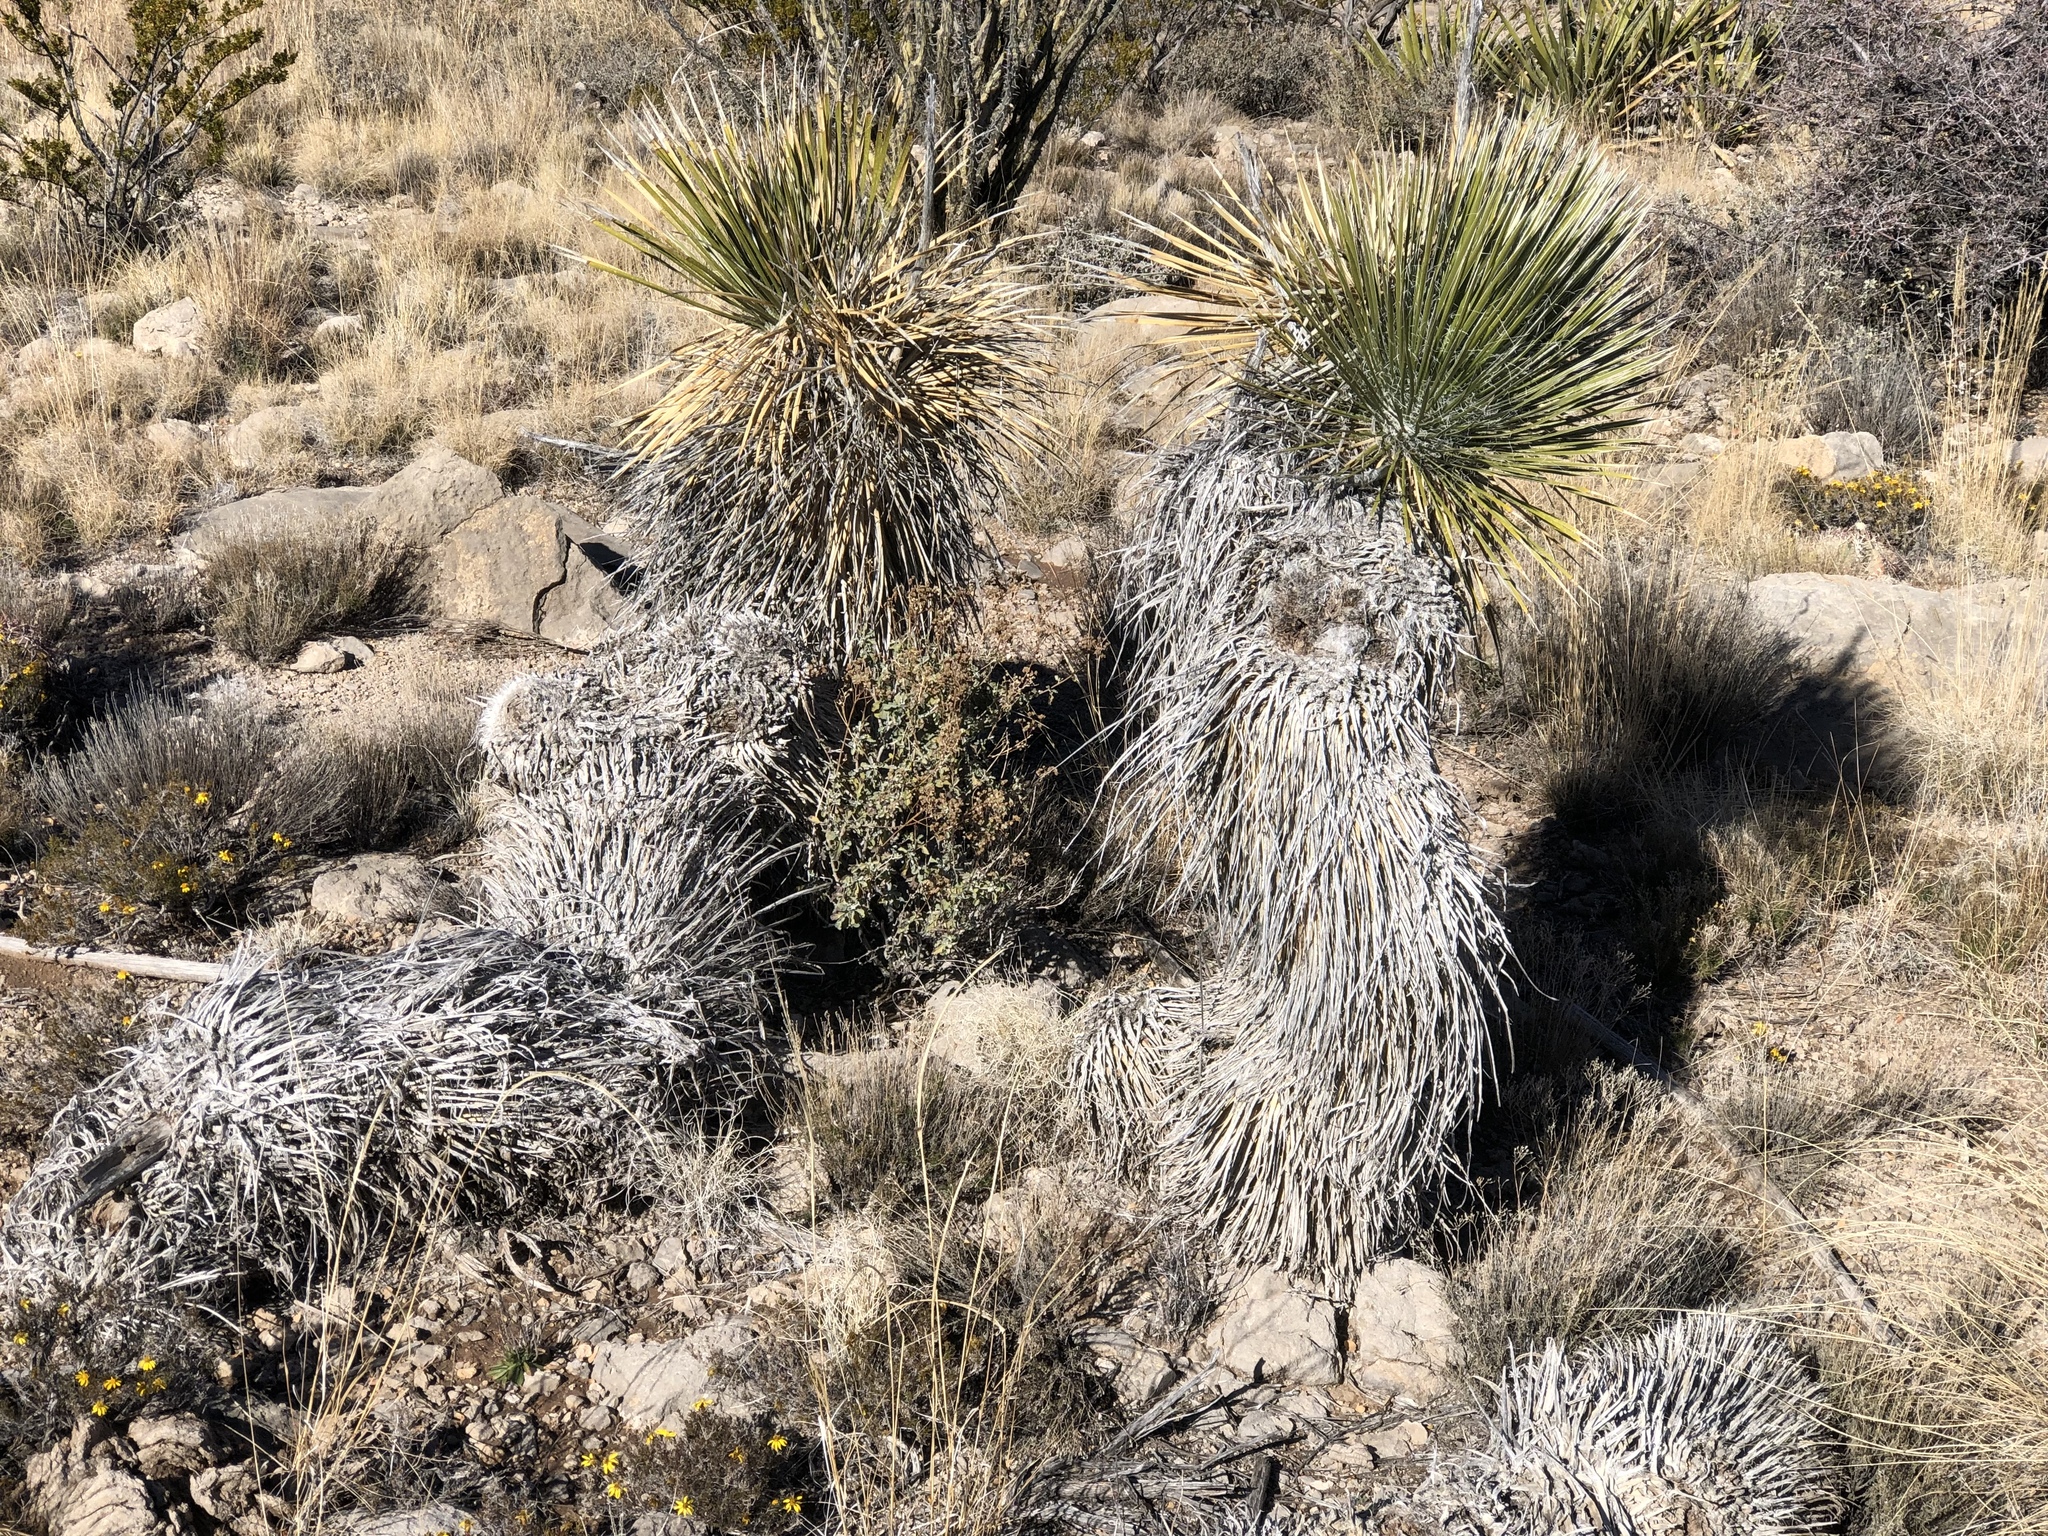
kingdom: Plantae
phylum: Tracheophyta
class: Liliopsida
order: Asparagales
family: Asparagaceae
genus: Yucca
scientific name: Yucca elata
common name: Palmella
